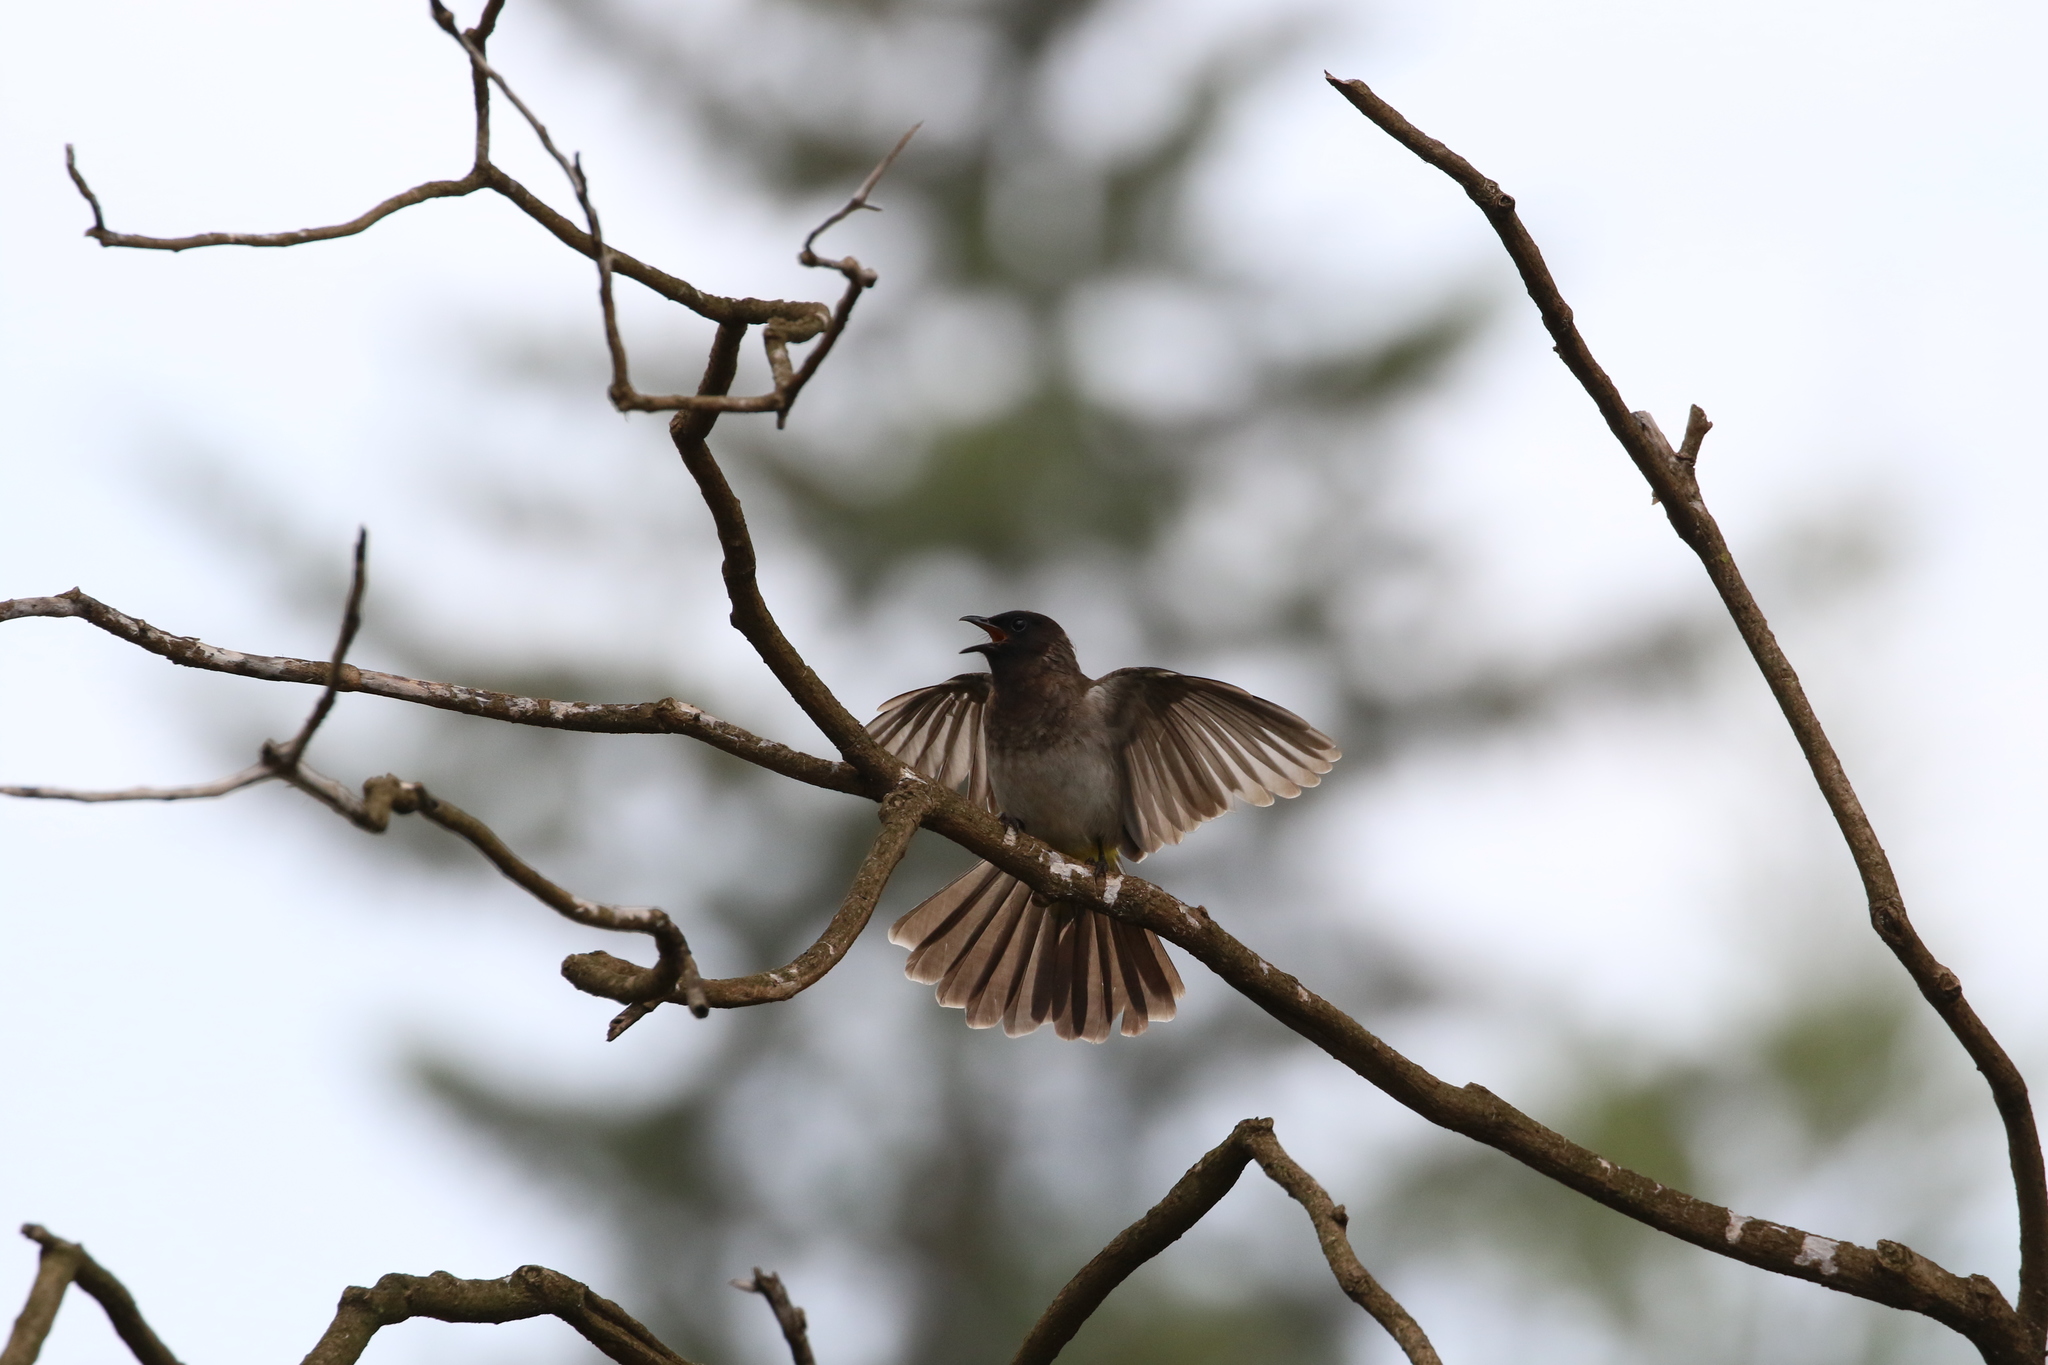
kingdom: Animalia
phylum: Chordata
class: Aves
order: Passeriformes
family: Pycnonotidae
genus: Pycnonotus
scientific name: Pycnonotus barbatus
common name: Common bulbul
